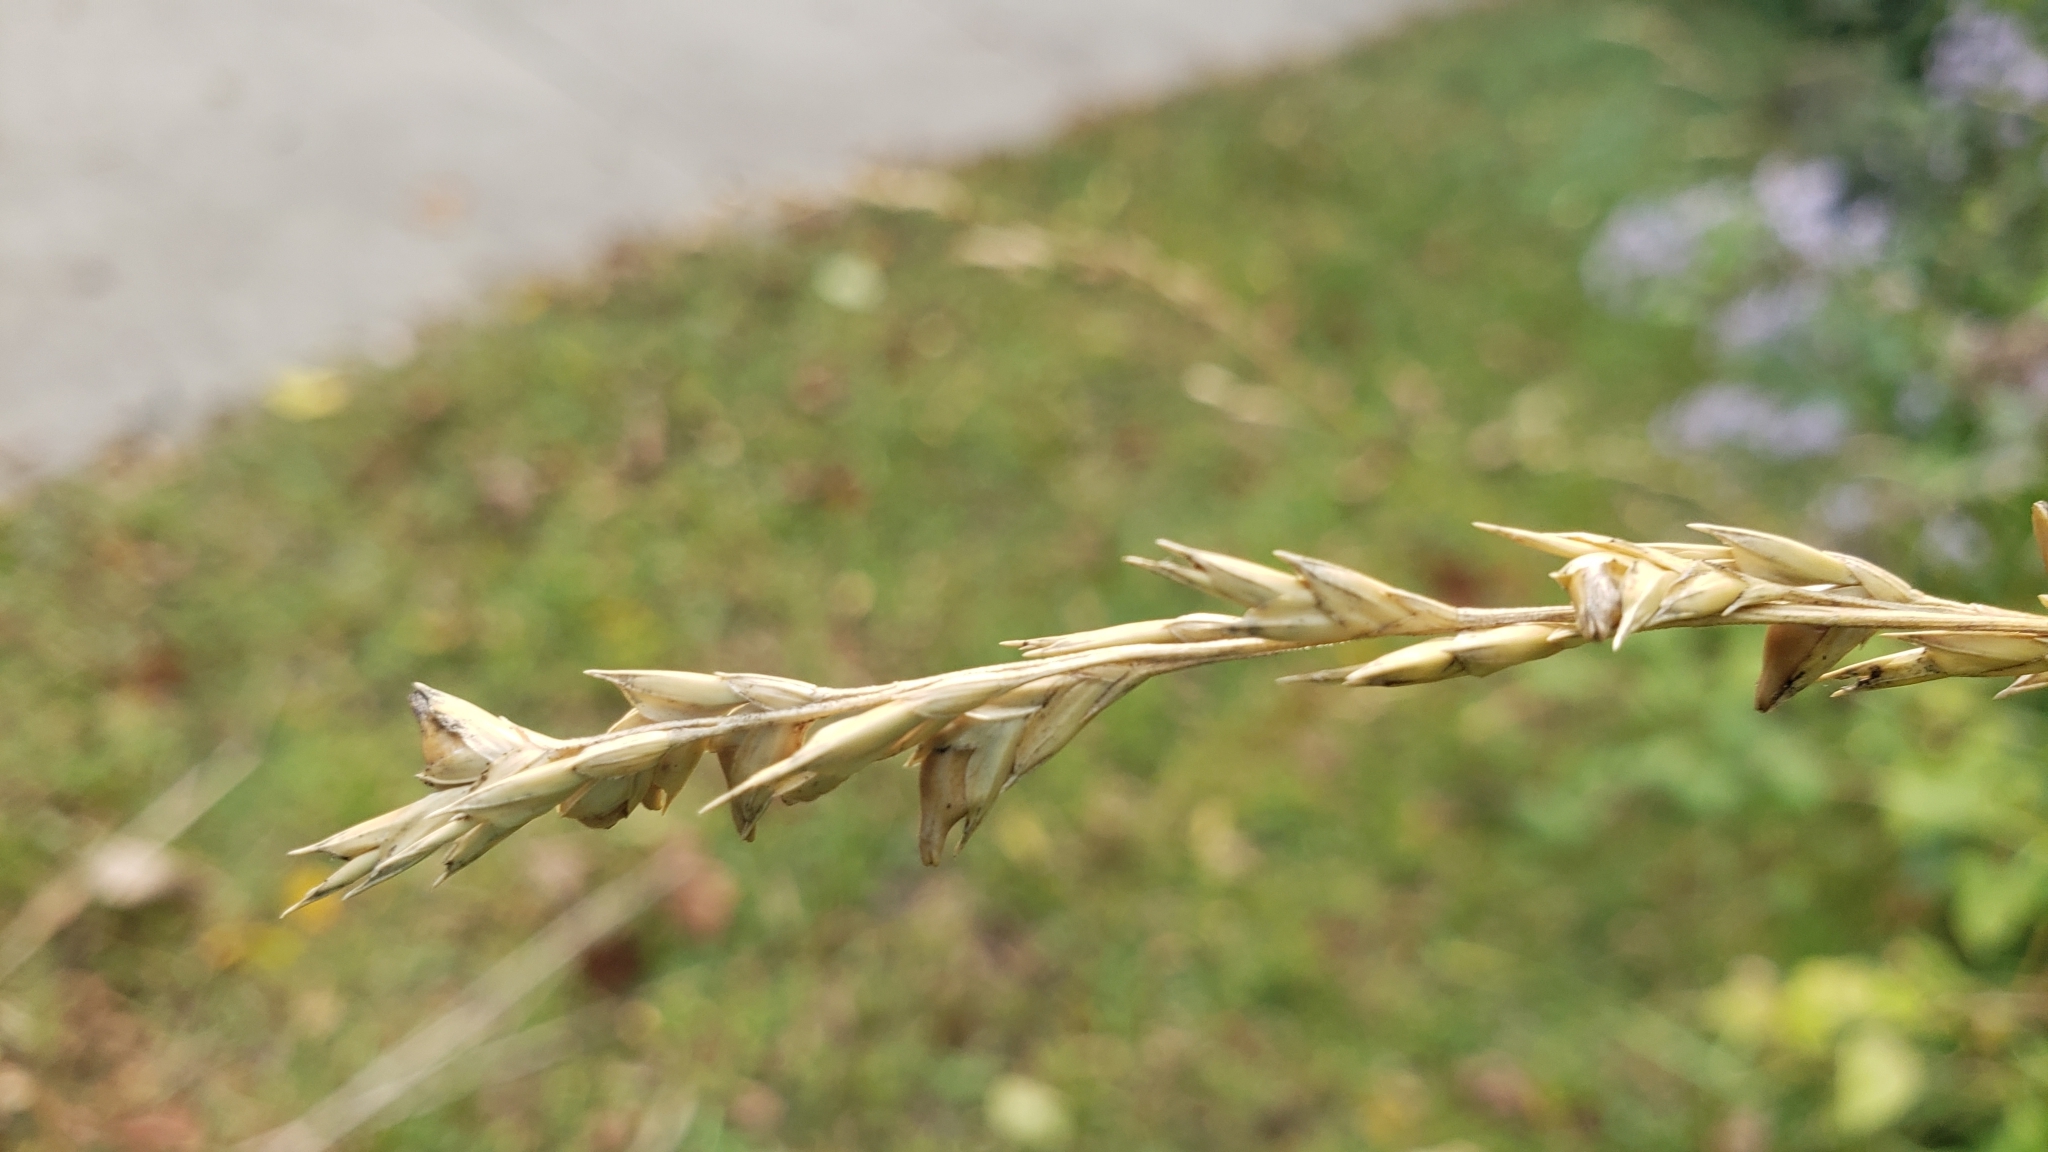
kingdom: Plantae
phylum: Tracheophyta
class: Liliopsida
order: Poales
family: Poaceae
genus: Diarrhena
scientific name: Diarrhena obovata
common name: Beakgrass
